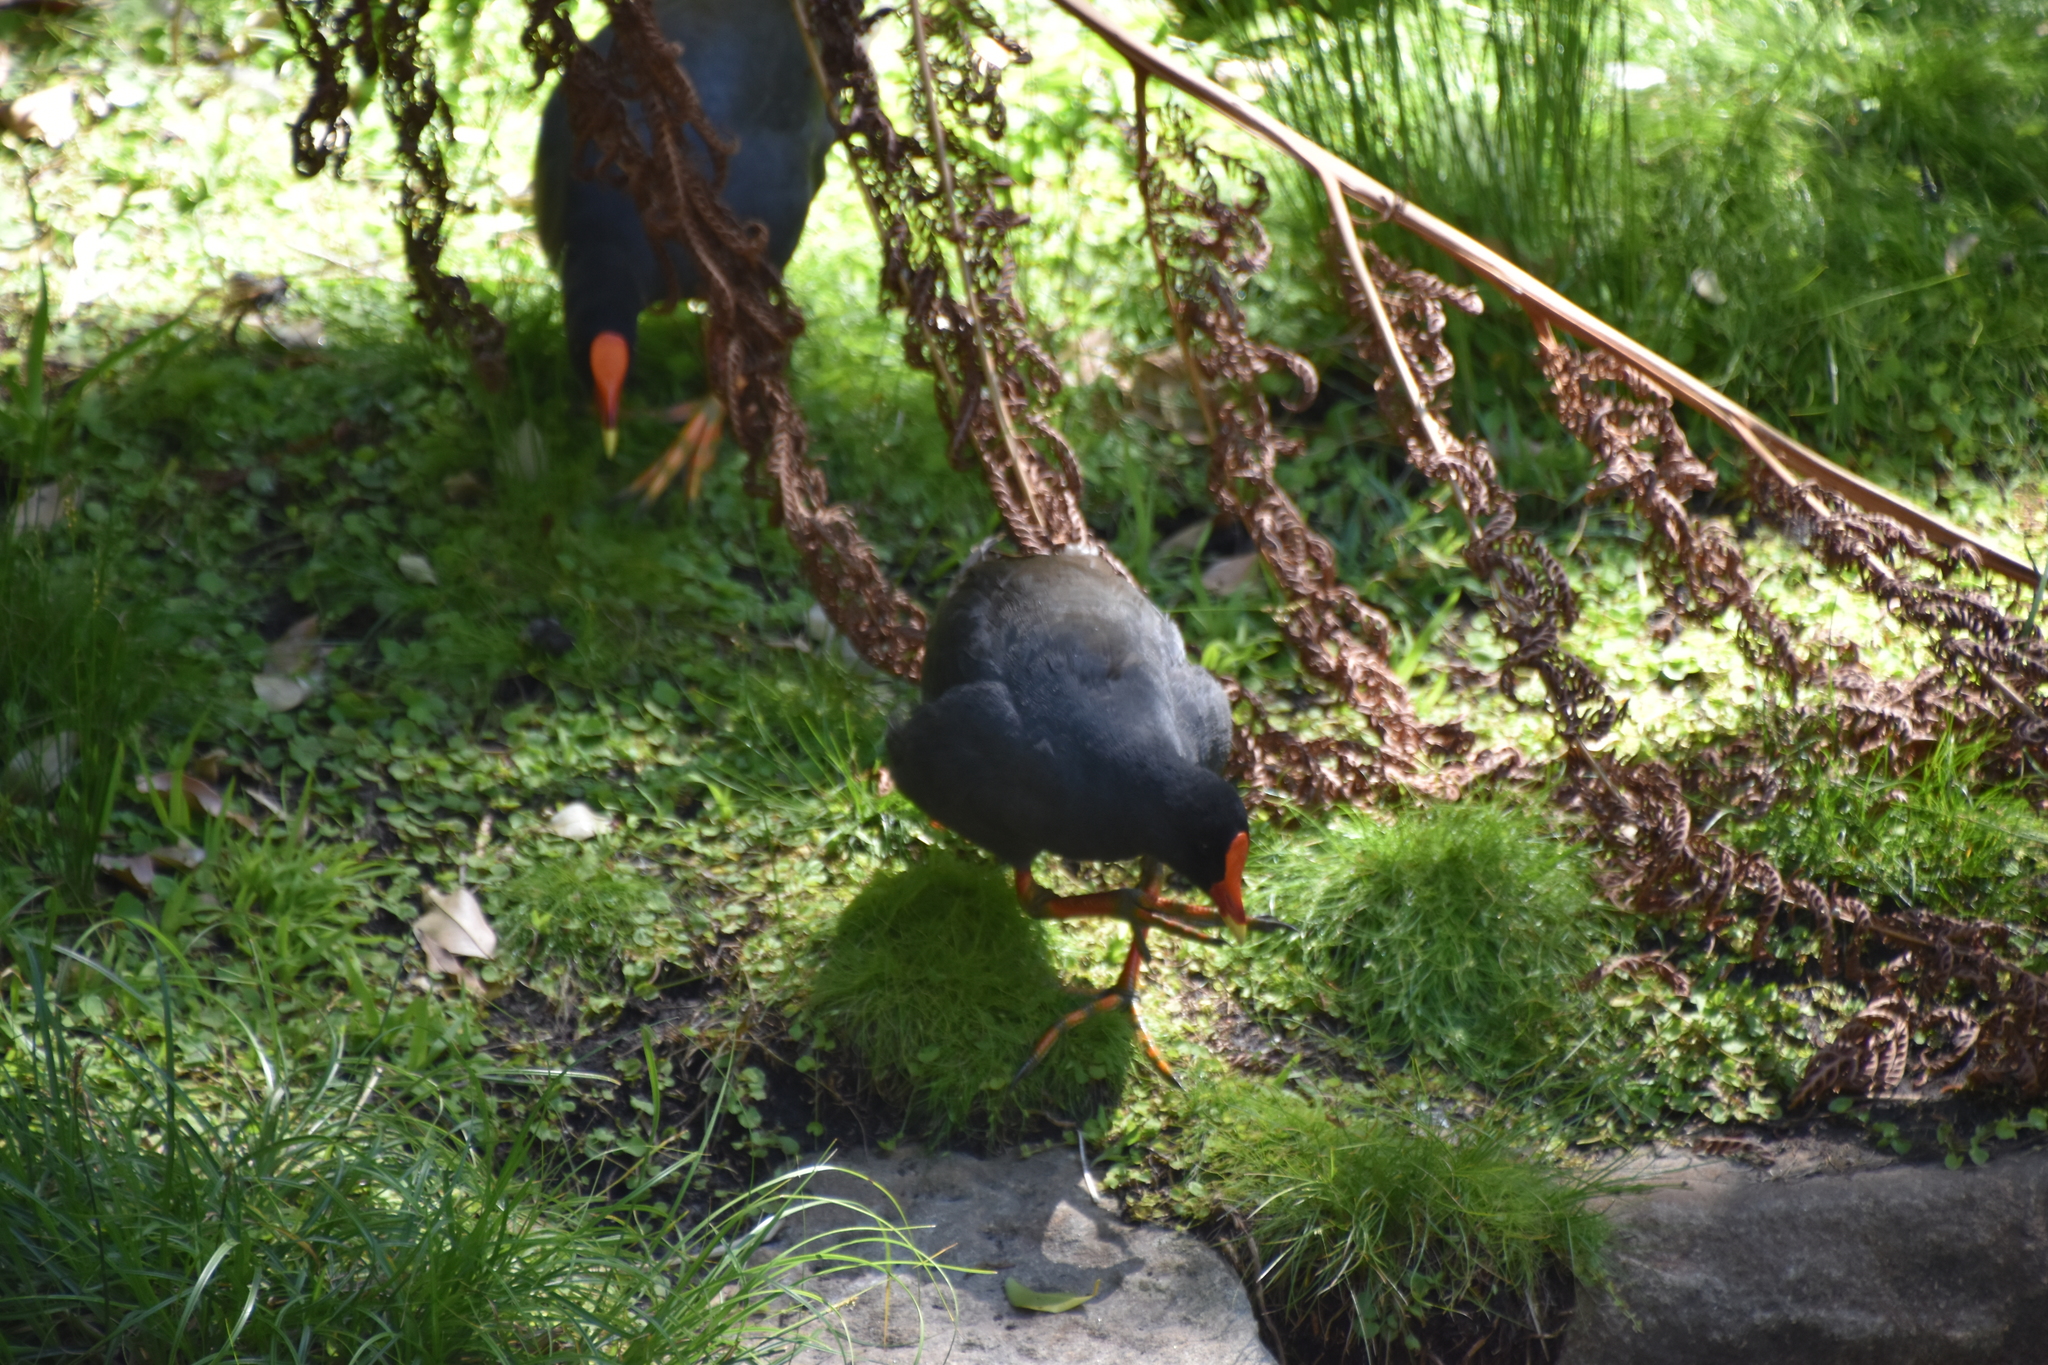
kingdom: Animalia
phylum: Chordata
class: Aves
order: Gruiformes
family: Rallidae
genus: Gallinula
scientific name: Gallinula tenebrosa
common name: Dusky moorhen
